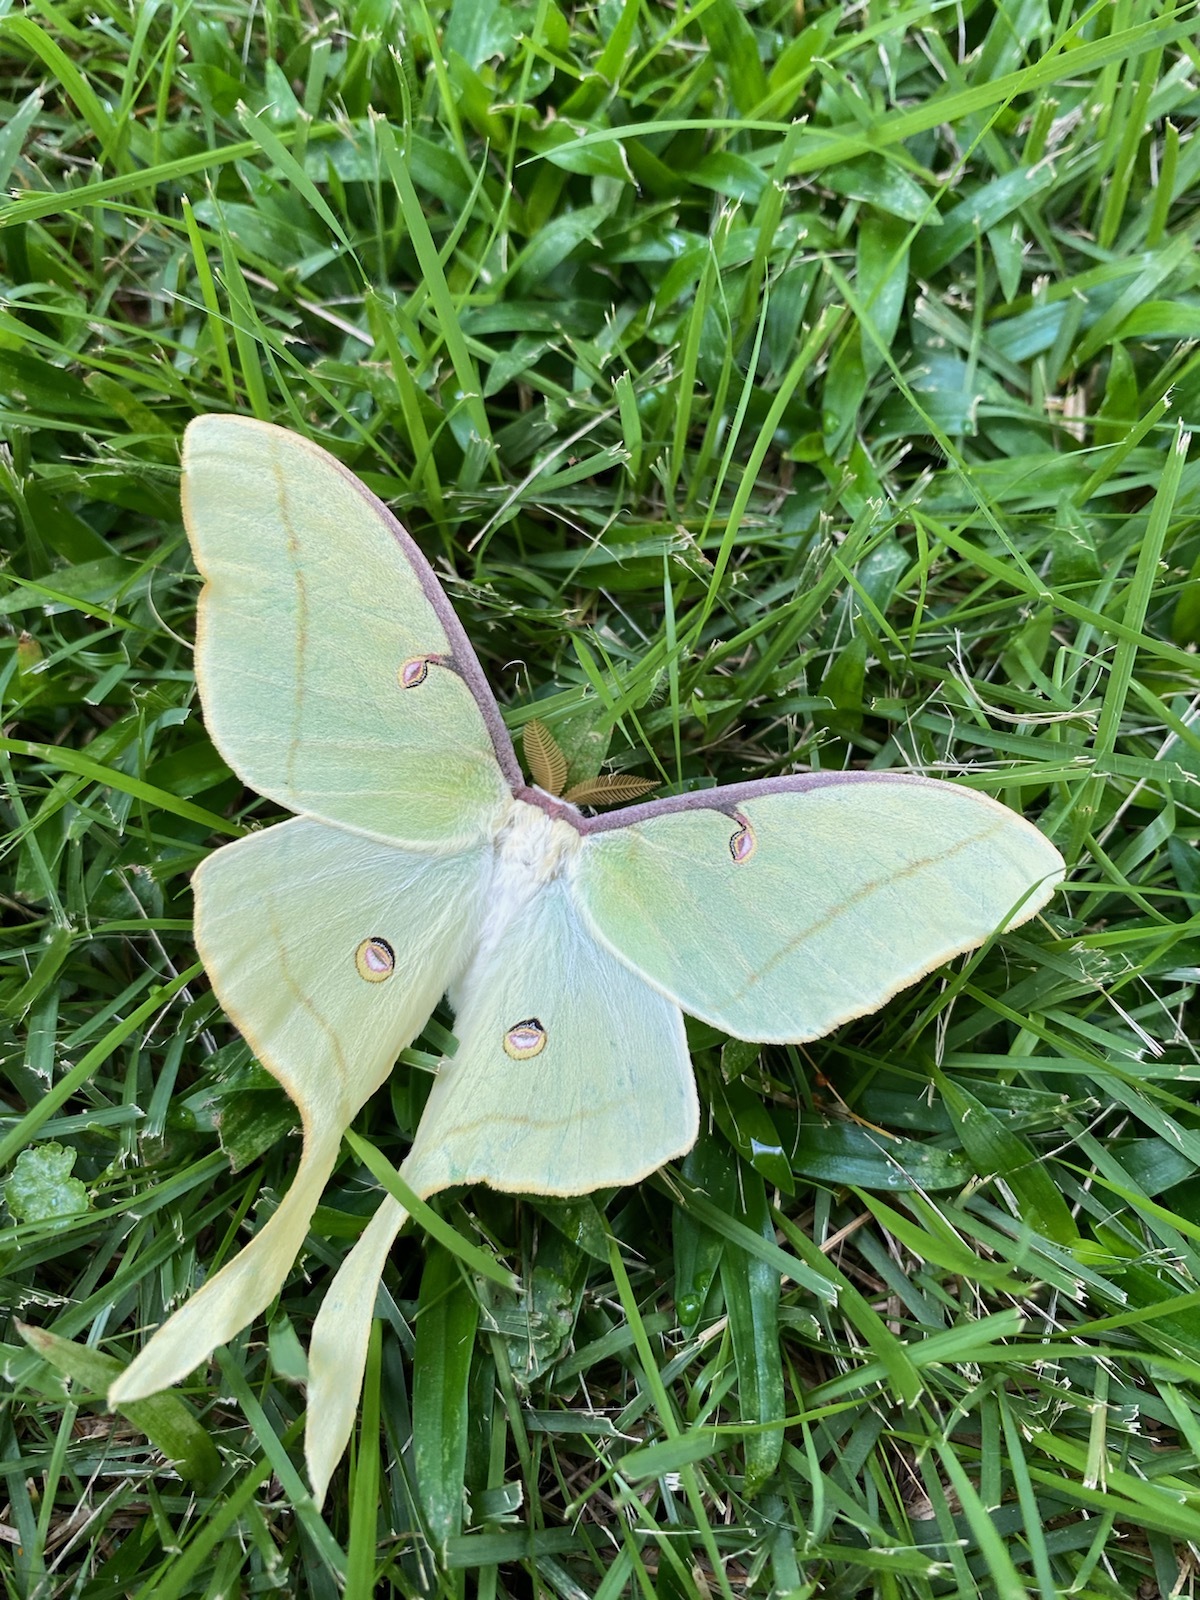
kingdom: Animalia
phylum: Arthropoda
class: Insecta
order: Lepidoptera
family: Saturniidae
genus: Actias
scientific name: Actias luna
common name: Luna moth
